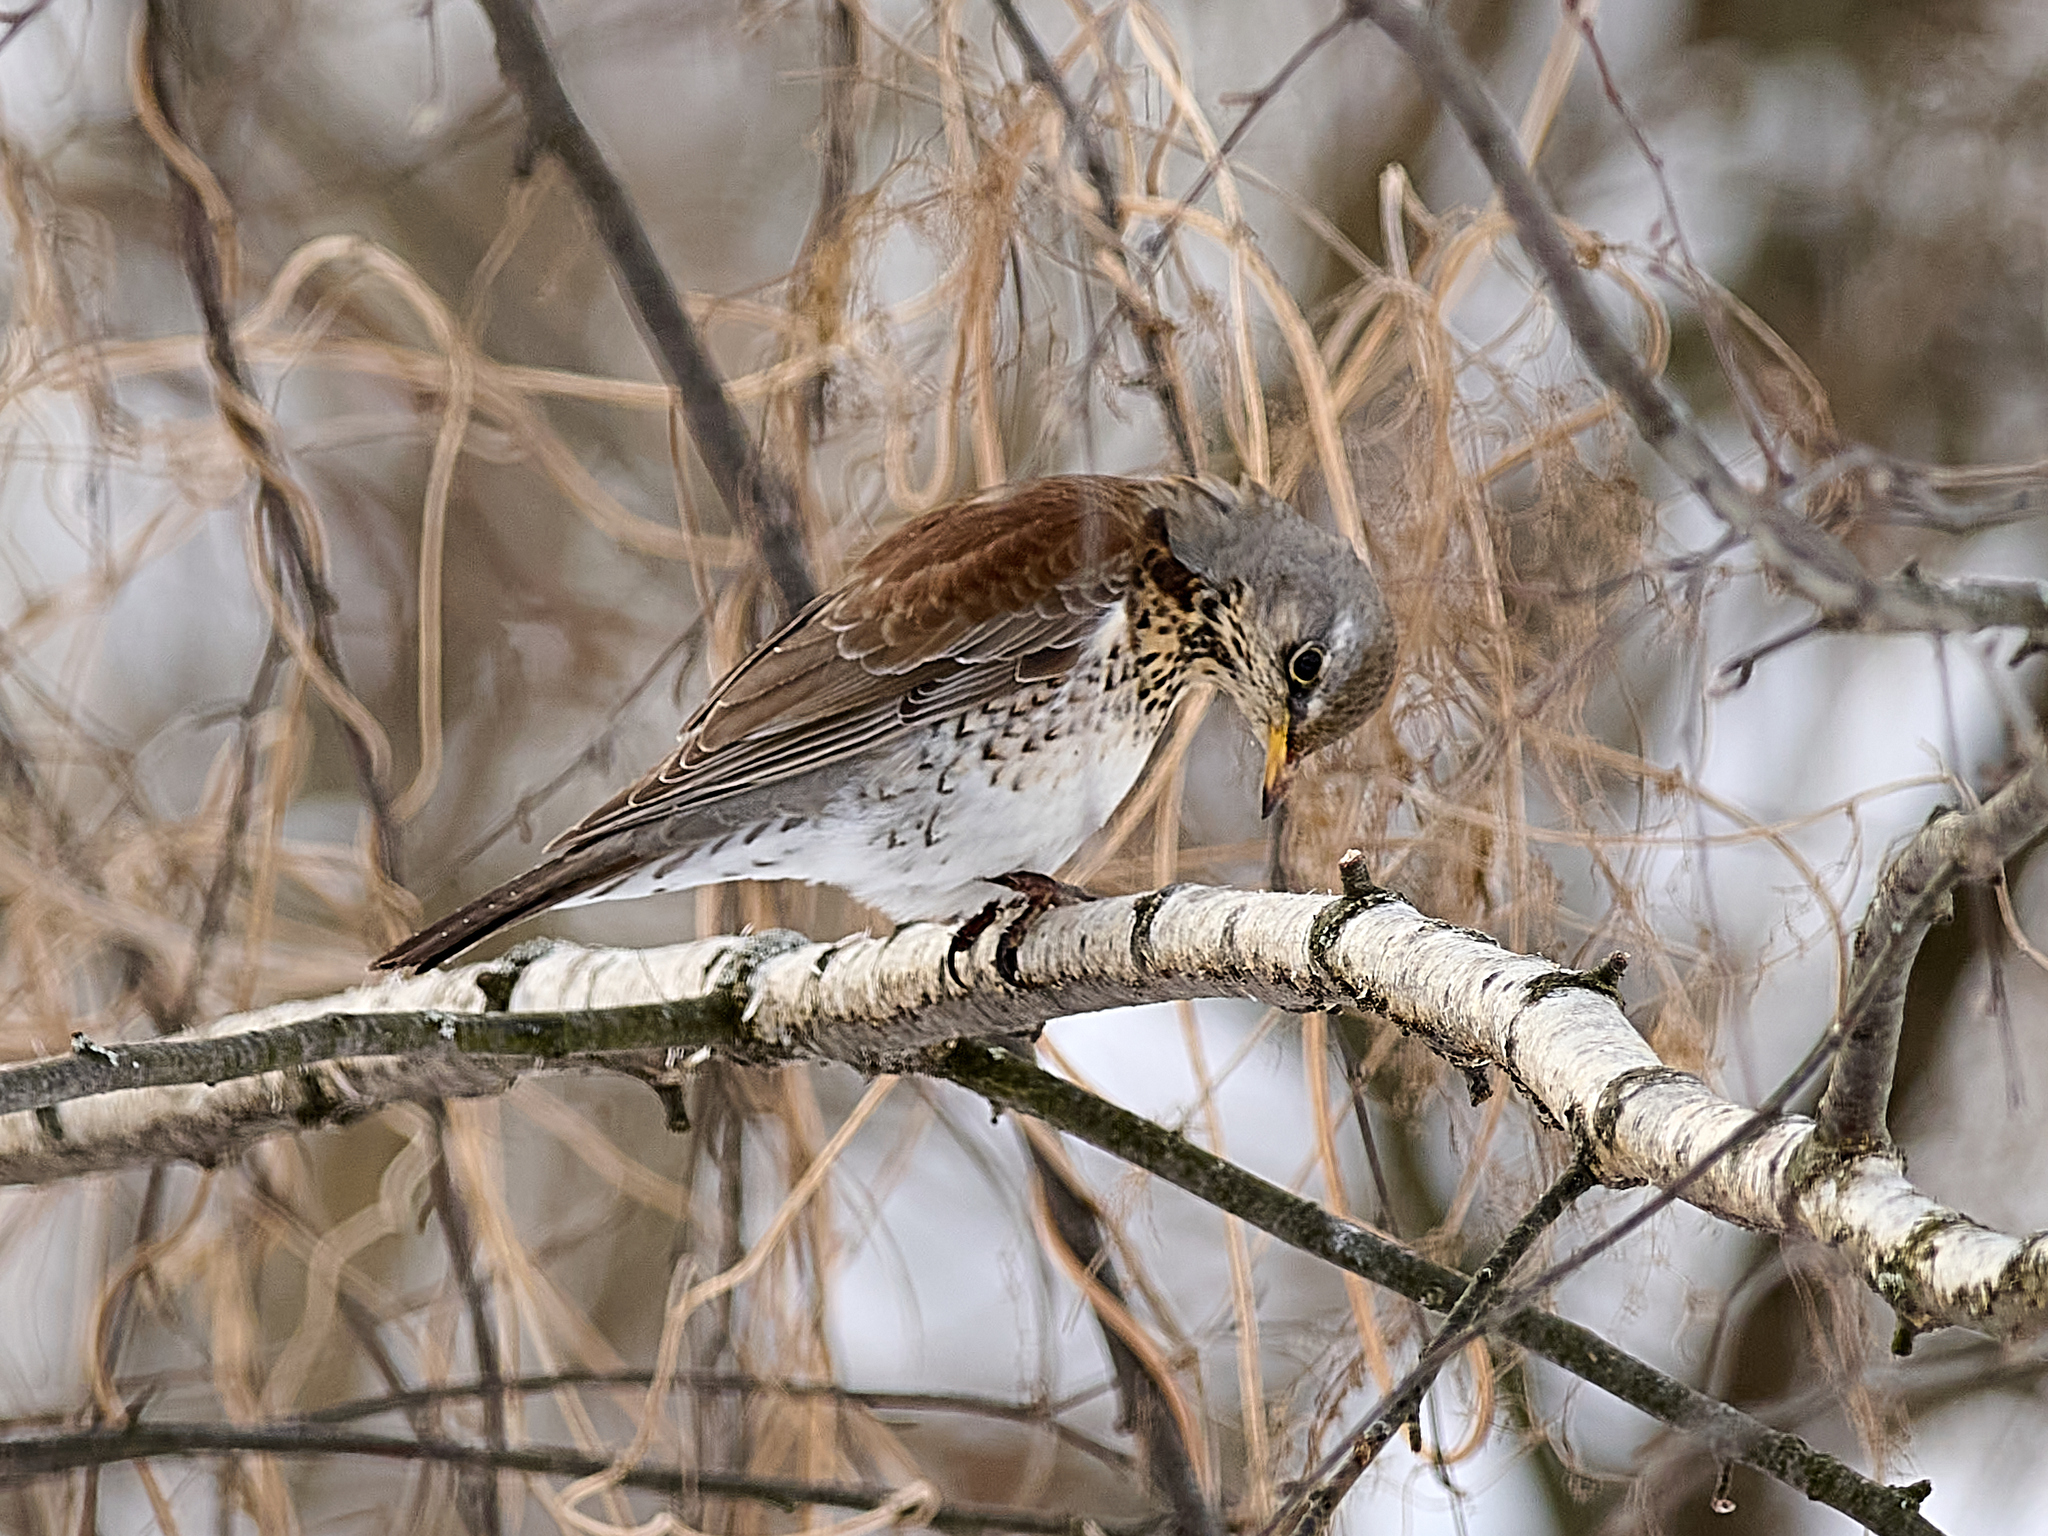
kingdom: Animalia
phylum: Chordata
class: Aves
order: Passeriformes
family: Turdidae
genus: Turdus
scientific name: Turdus pilaris
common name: Fieldfare
